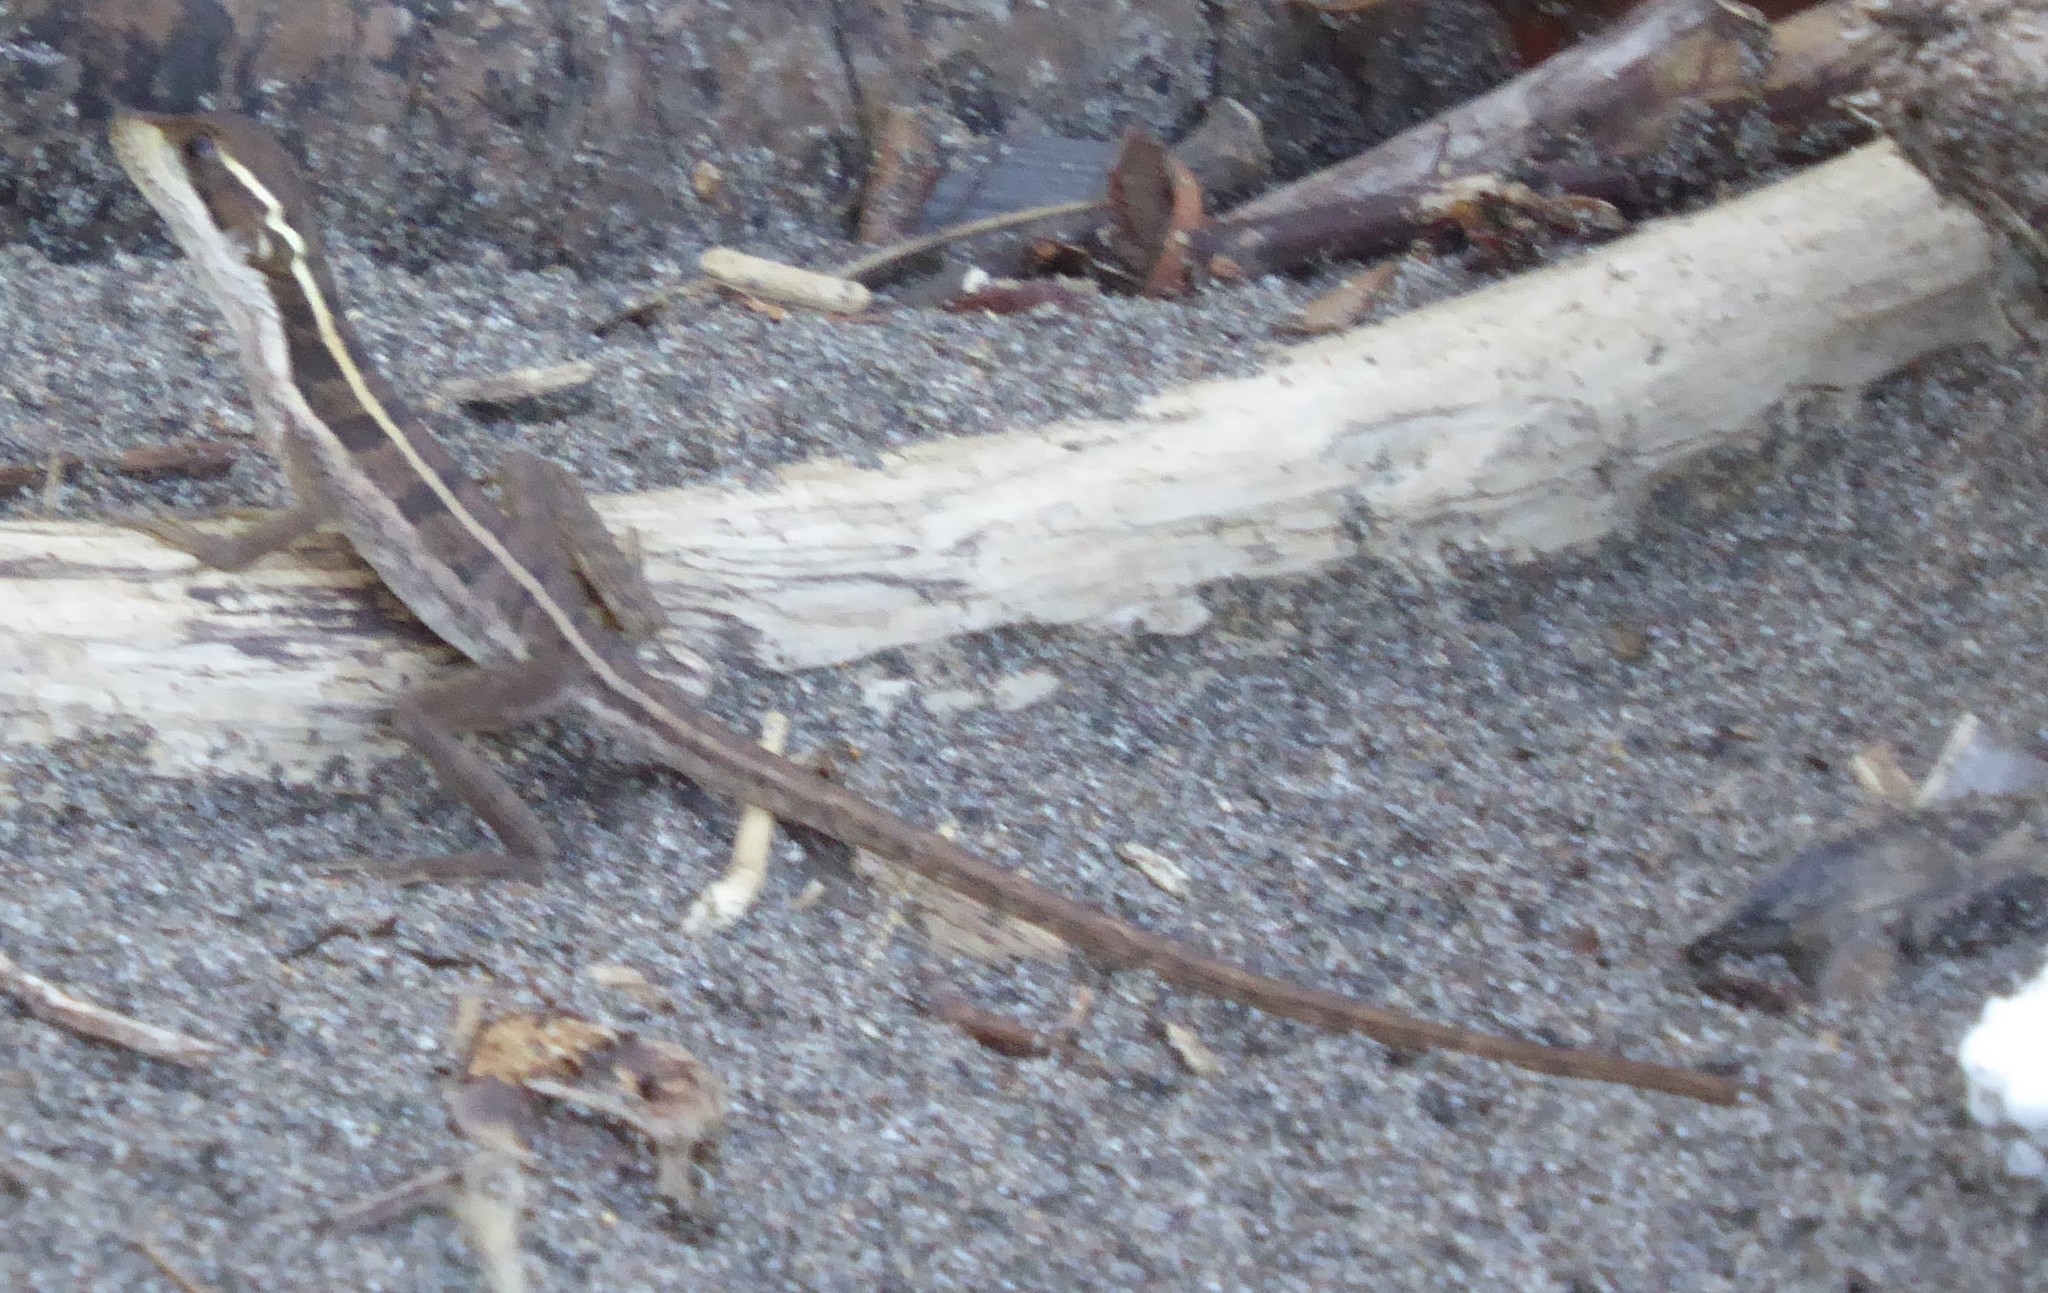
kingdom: Animalia
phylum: Chordata
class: Squamata
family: Corytophanidae
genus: Basiliscus
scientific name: Basiliscus vittatus
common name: Brown basilisk
